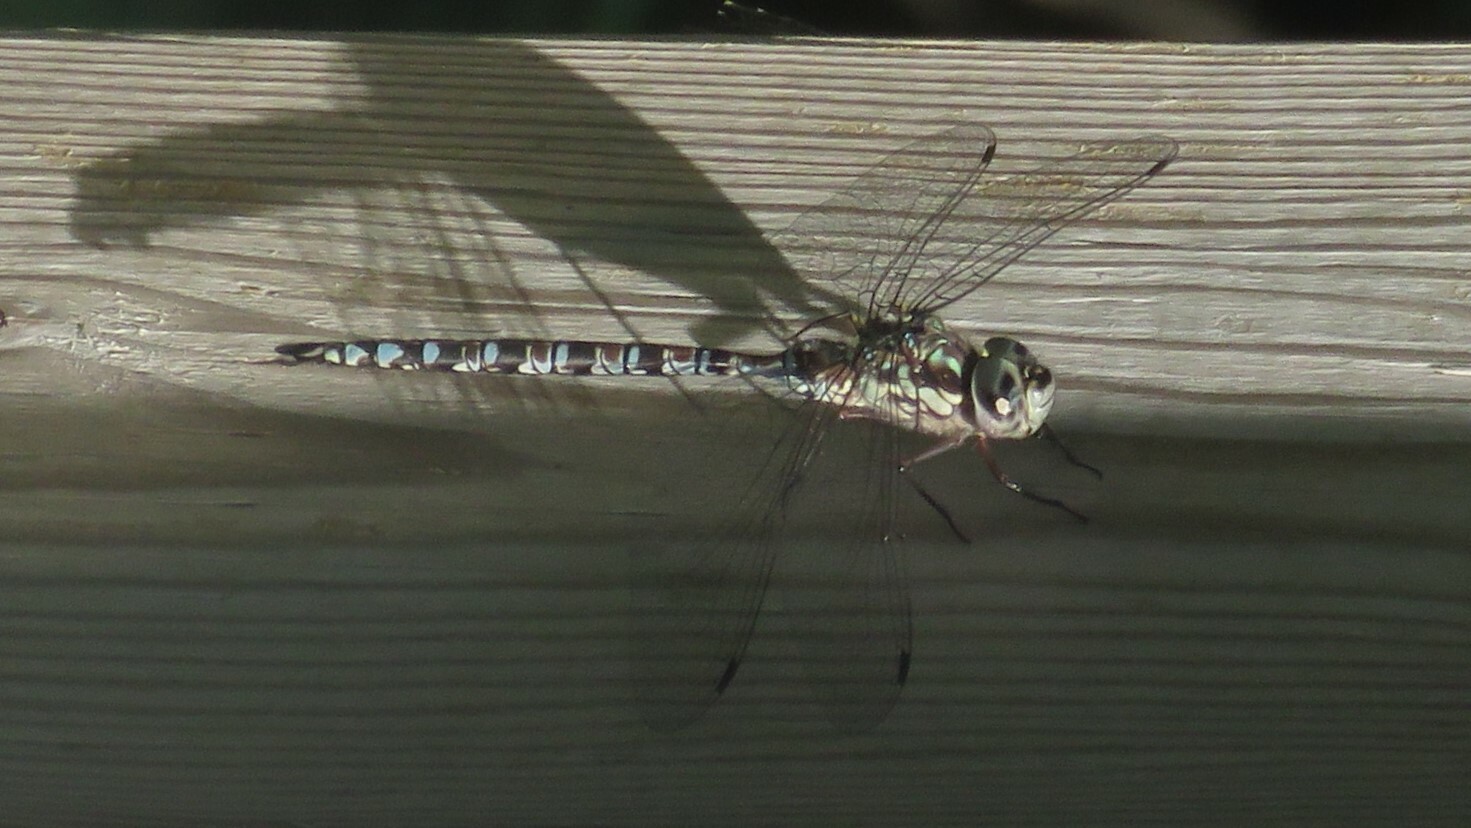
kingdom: Animalia
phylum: Arthropoda
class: Insecta
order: Odonata
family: Aeshnidae
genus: Aeshna
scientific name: Aeshna clepsydra
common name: Mottled darner
